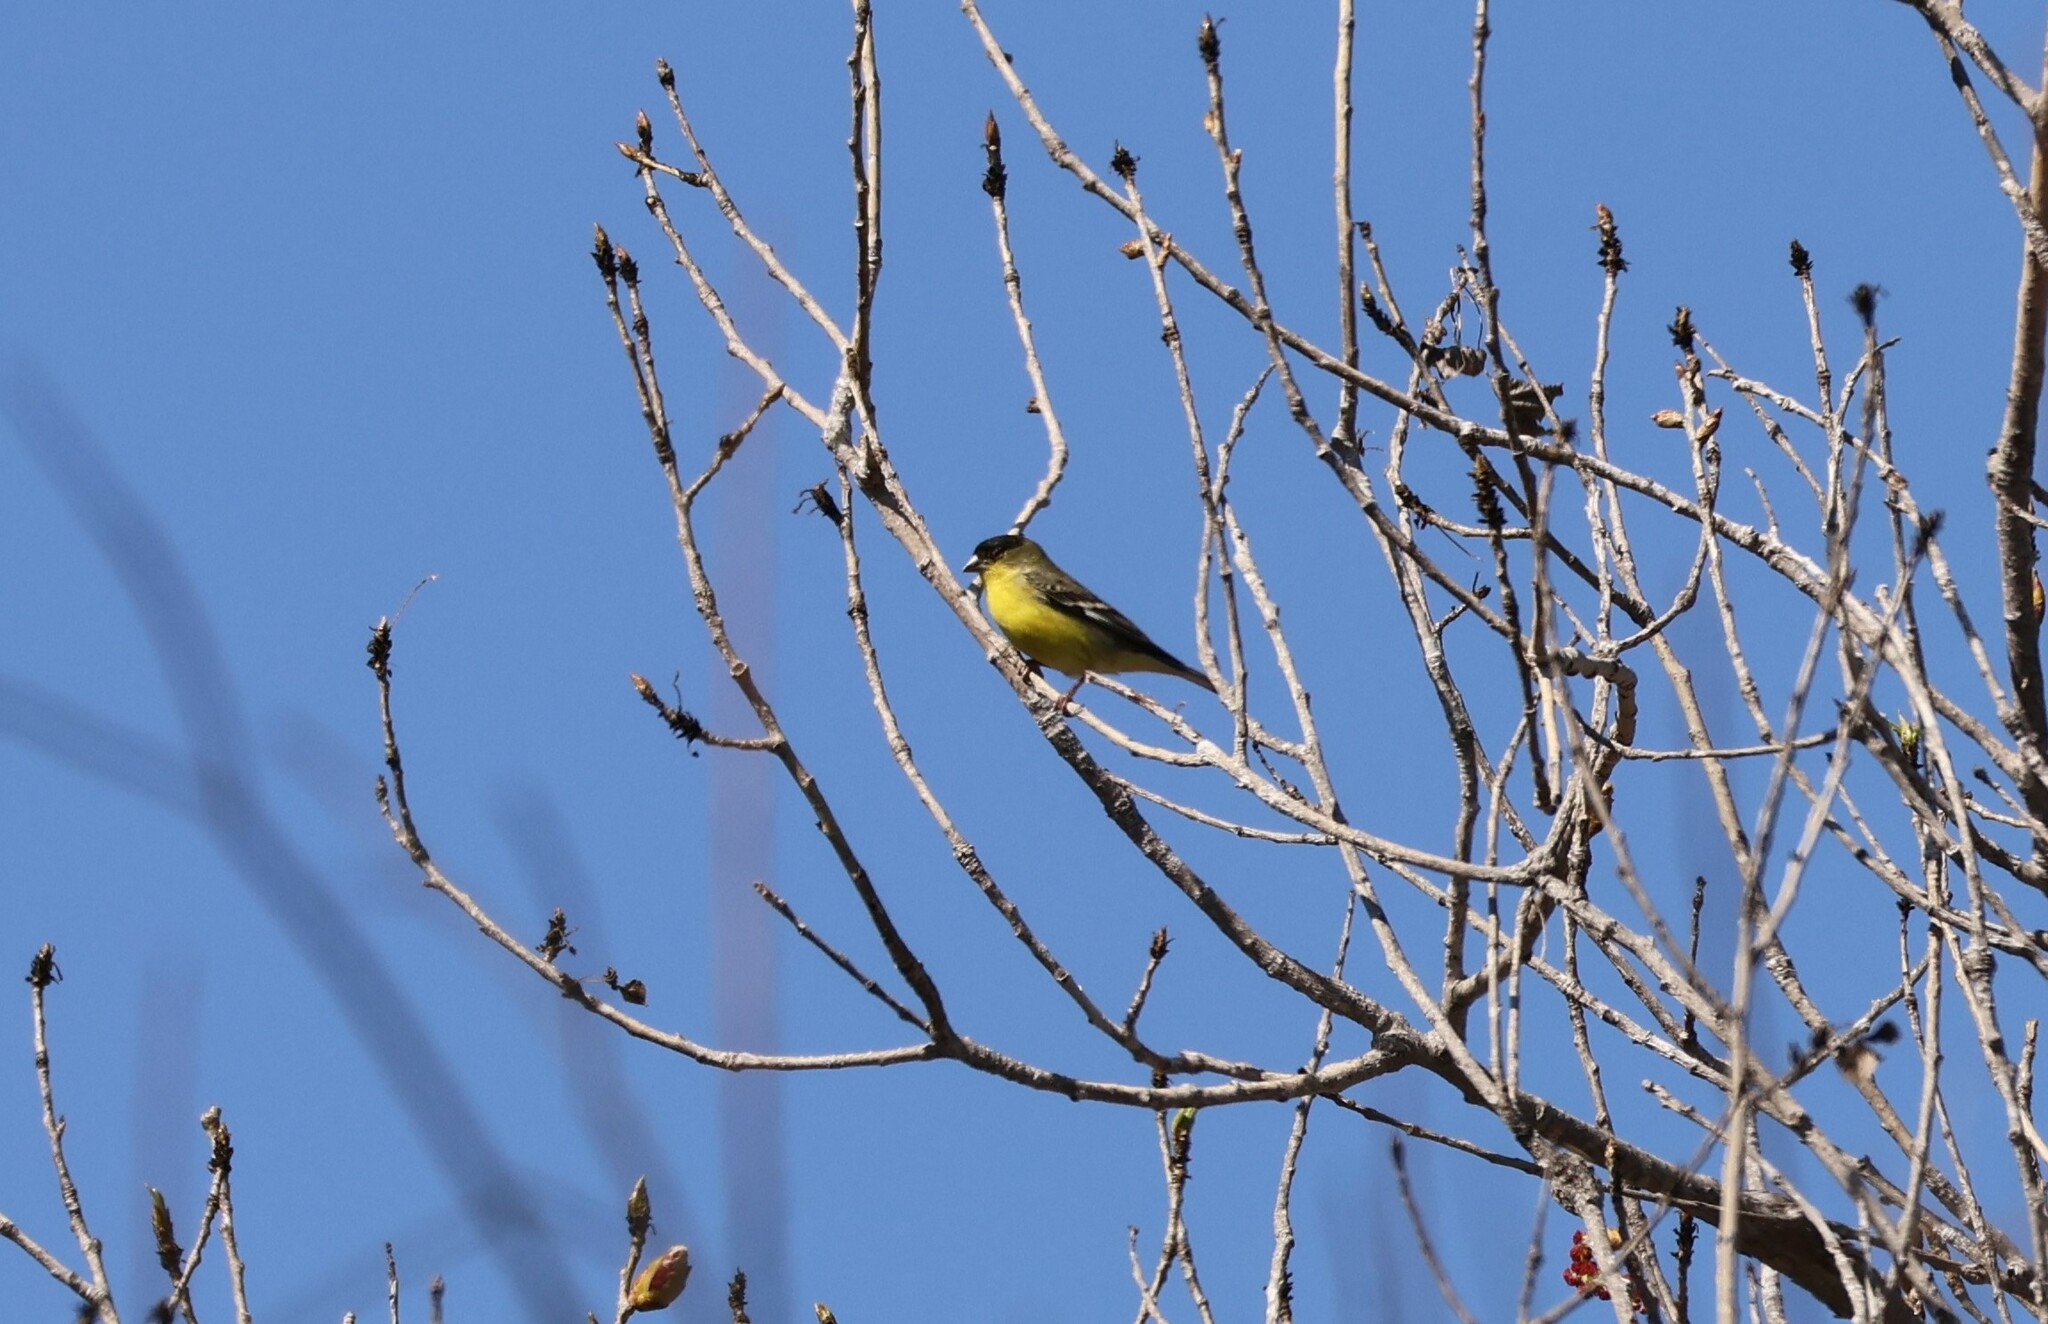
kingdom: Animalia
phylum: Chordata
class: Aves
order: Passeriformes
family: Fringillidae
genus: Spinus
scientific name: Spinus psaltria
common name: Lesser goldfinch
